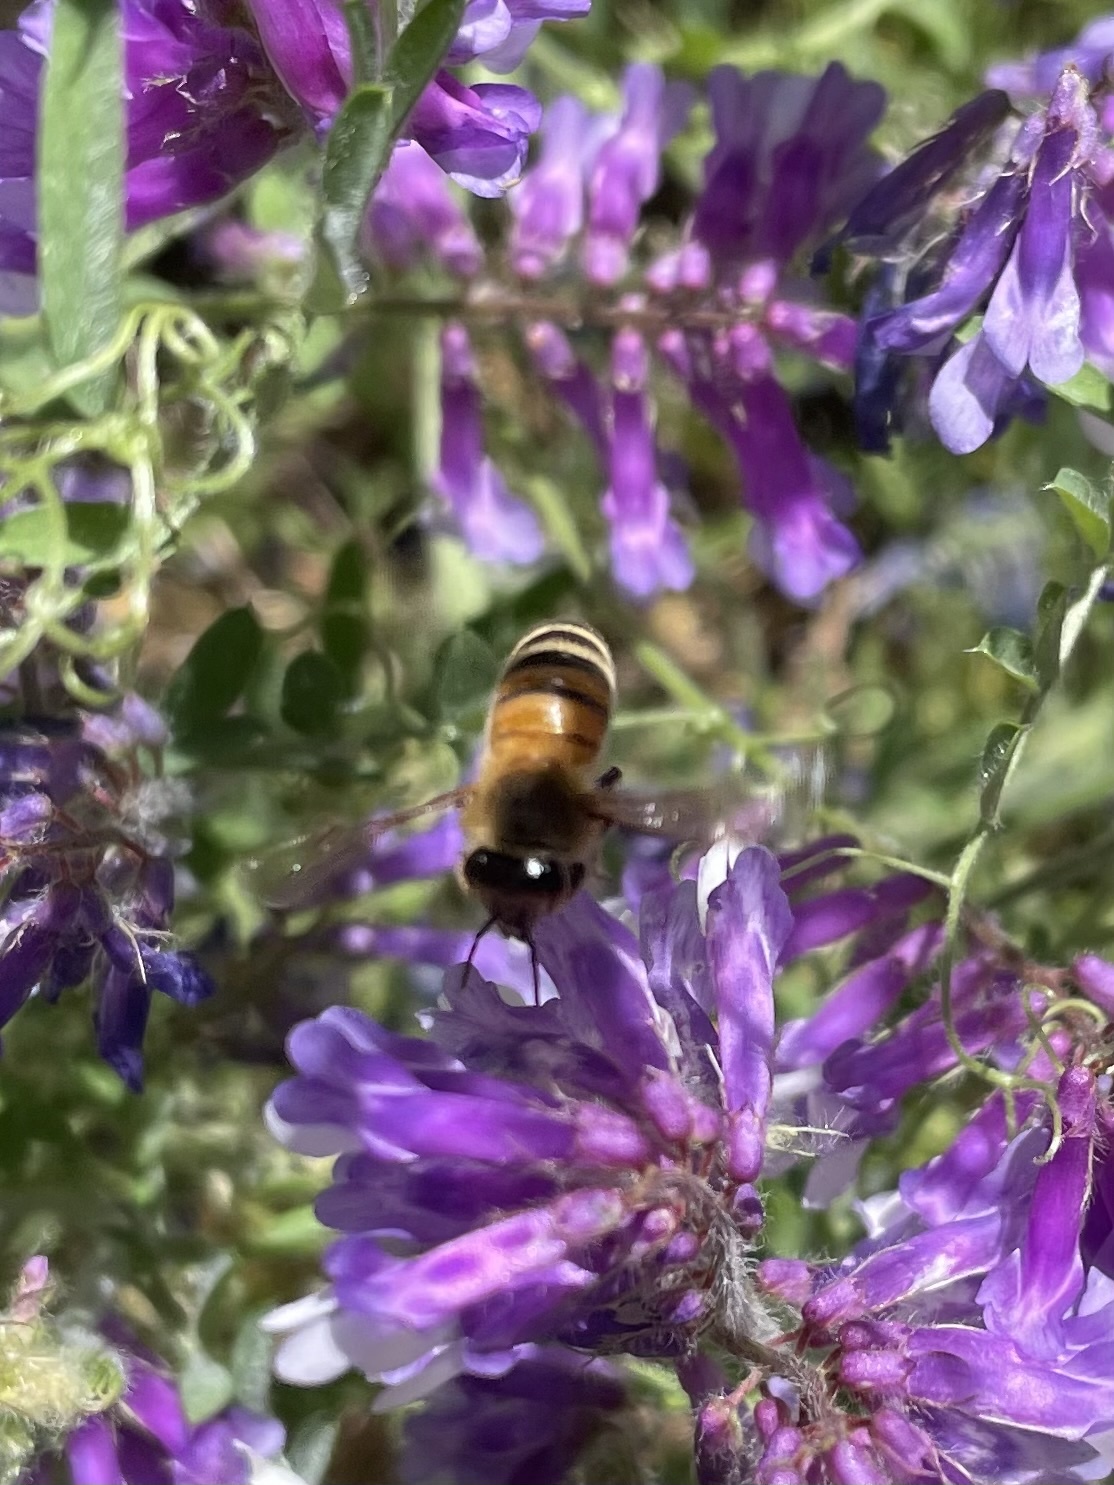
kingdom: Animalia
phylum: Arthropoda
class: Insecta
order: Hymenoptera
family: Apidae
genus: Apis
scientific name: Apis mellifera
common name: Honey bee
